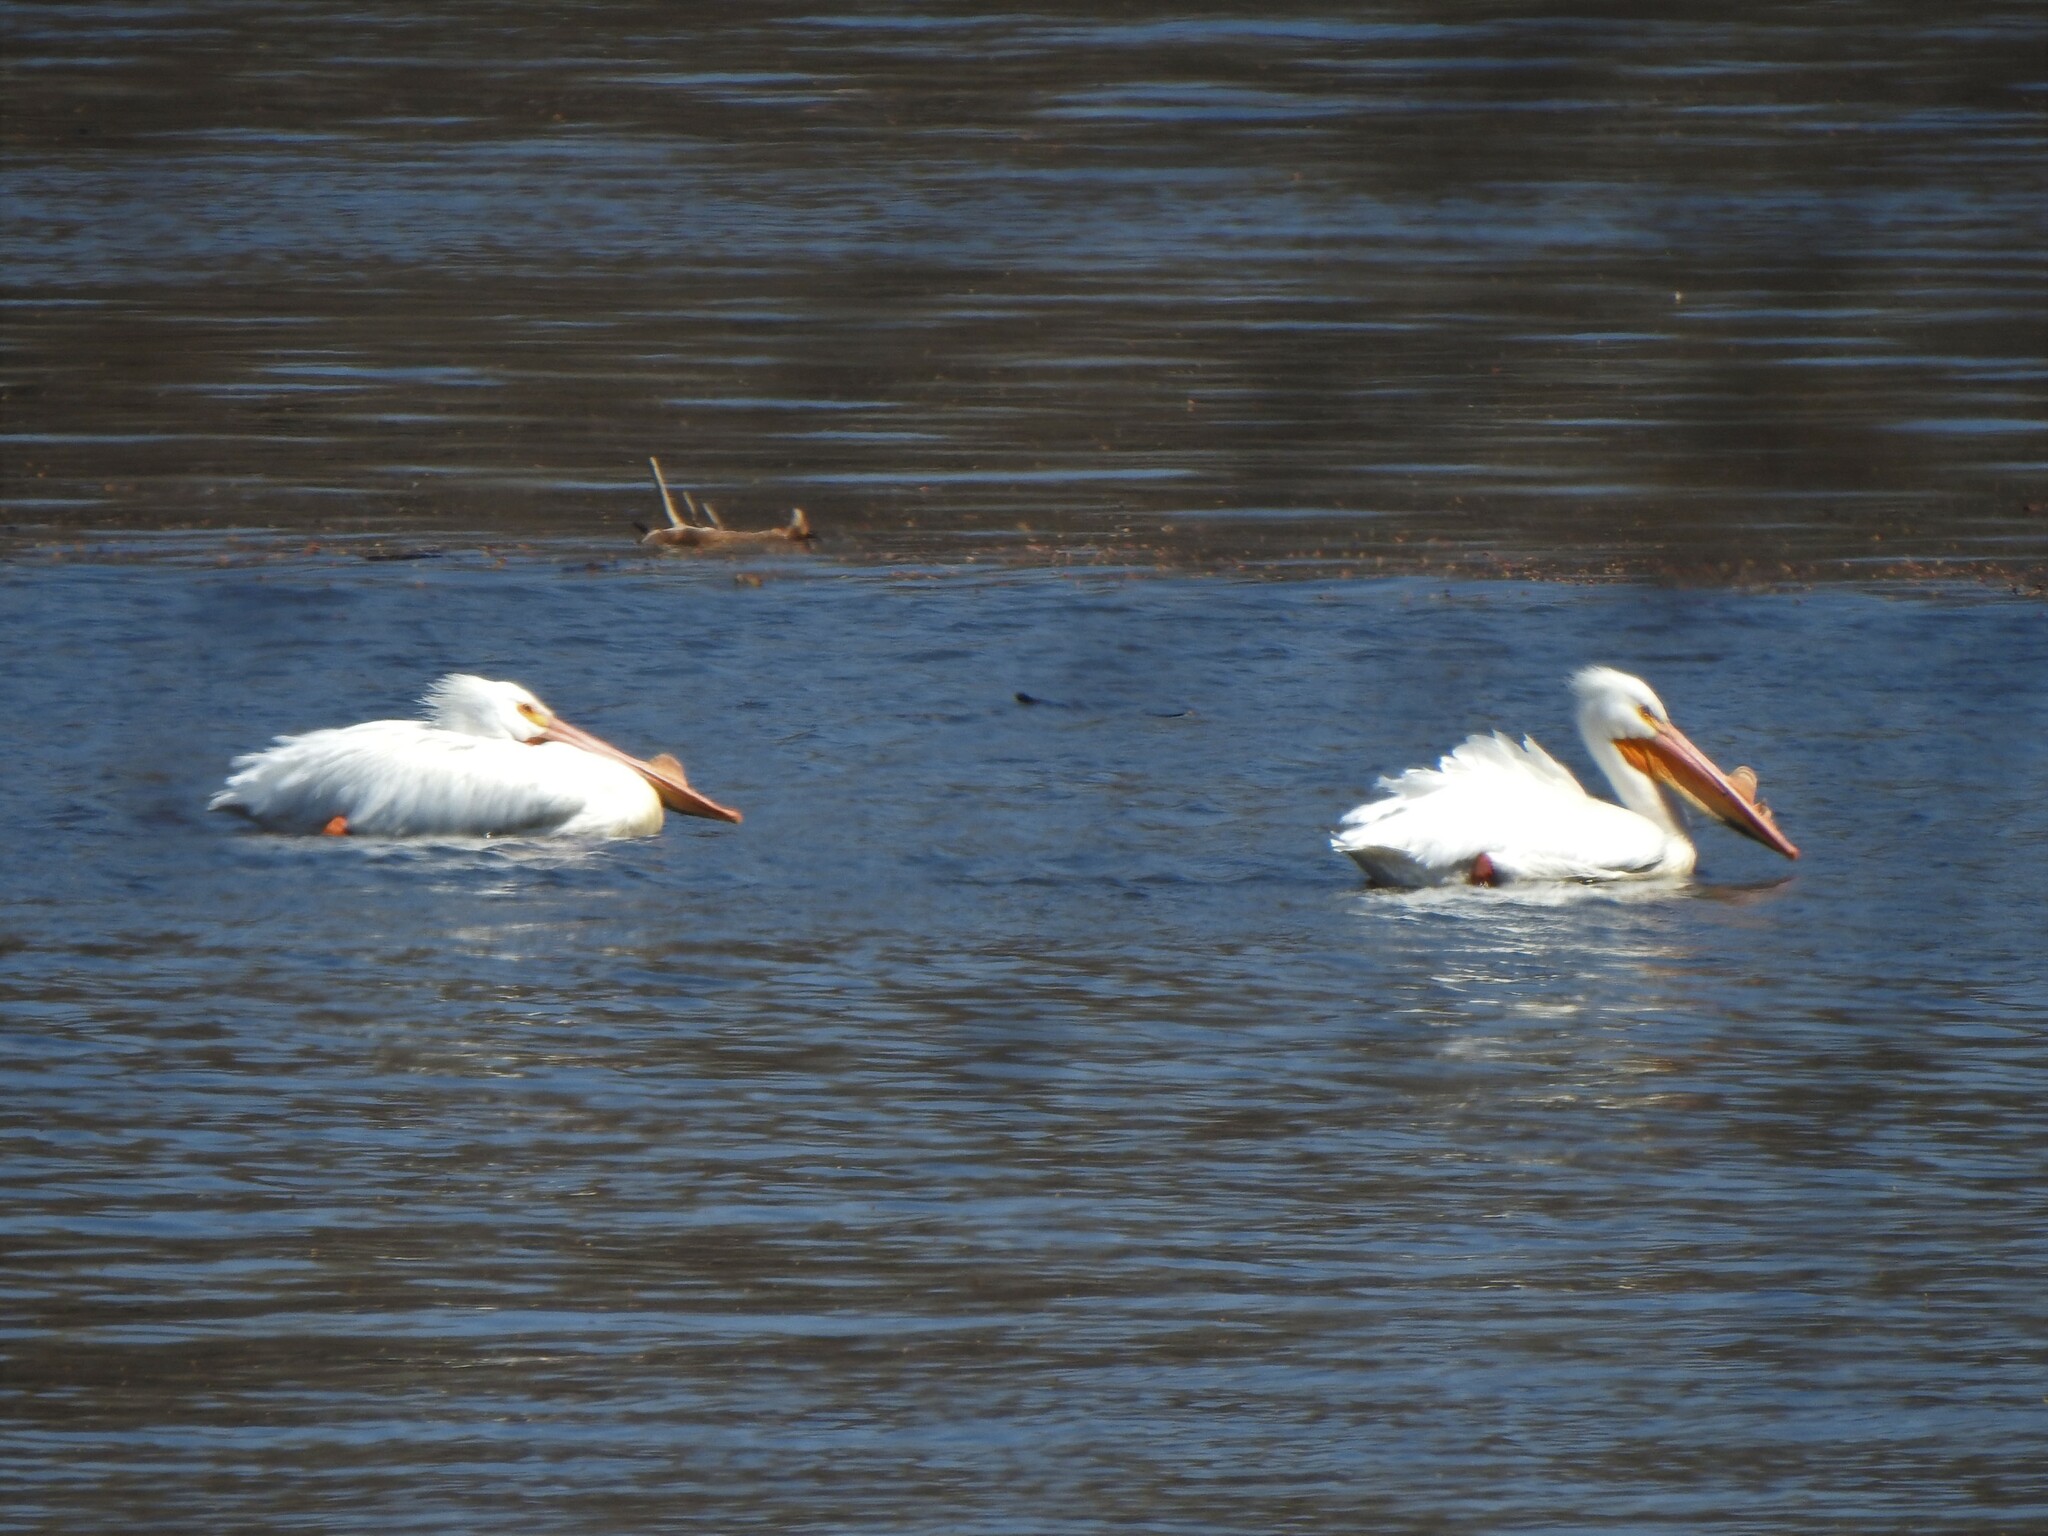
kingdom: Animalia
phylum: Chordata
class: Aves
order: Pelecaniformes
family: Pelecanidae
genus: Pelecanus
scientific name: Pelecanus erythrorhynchos
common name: American white pelican
